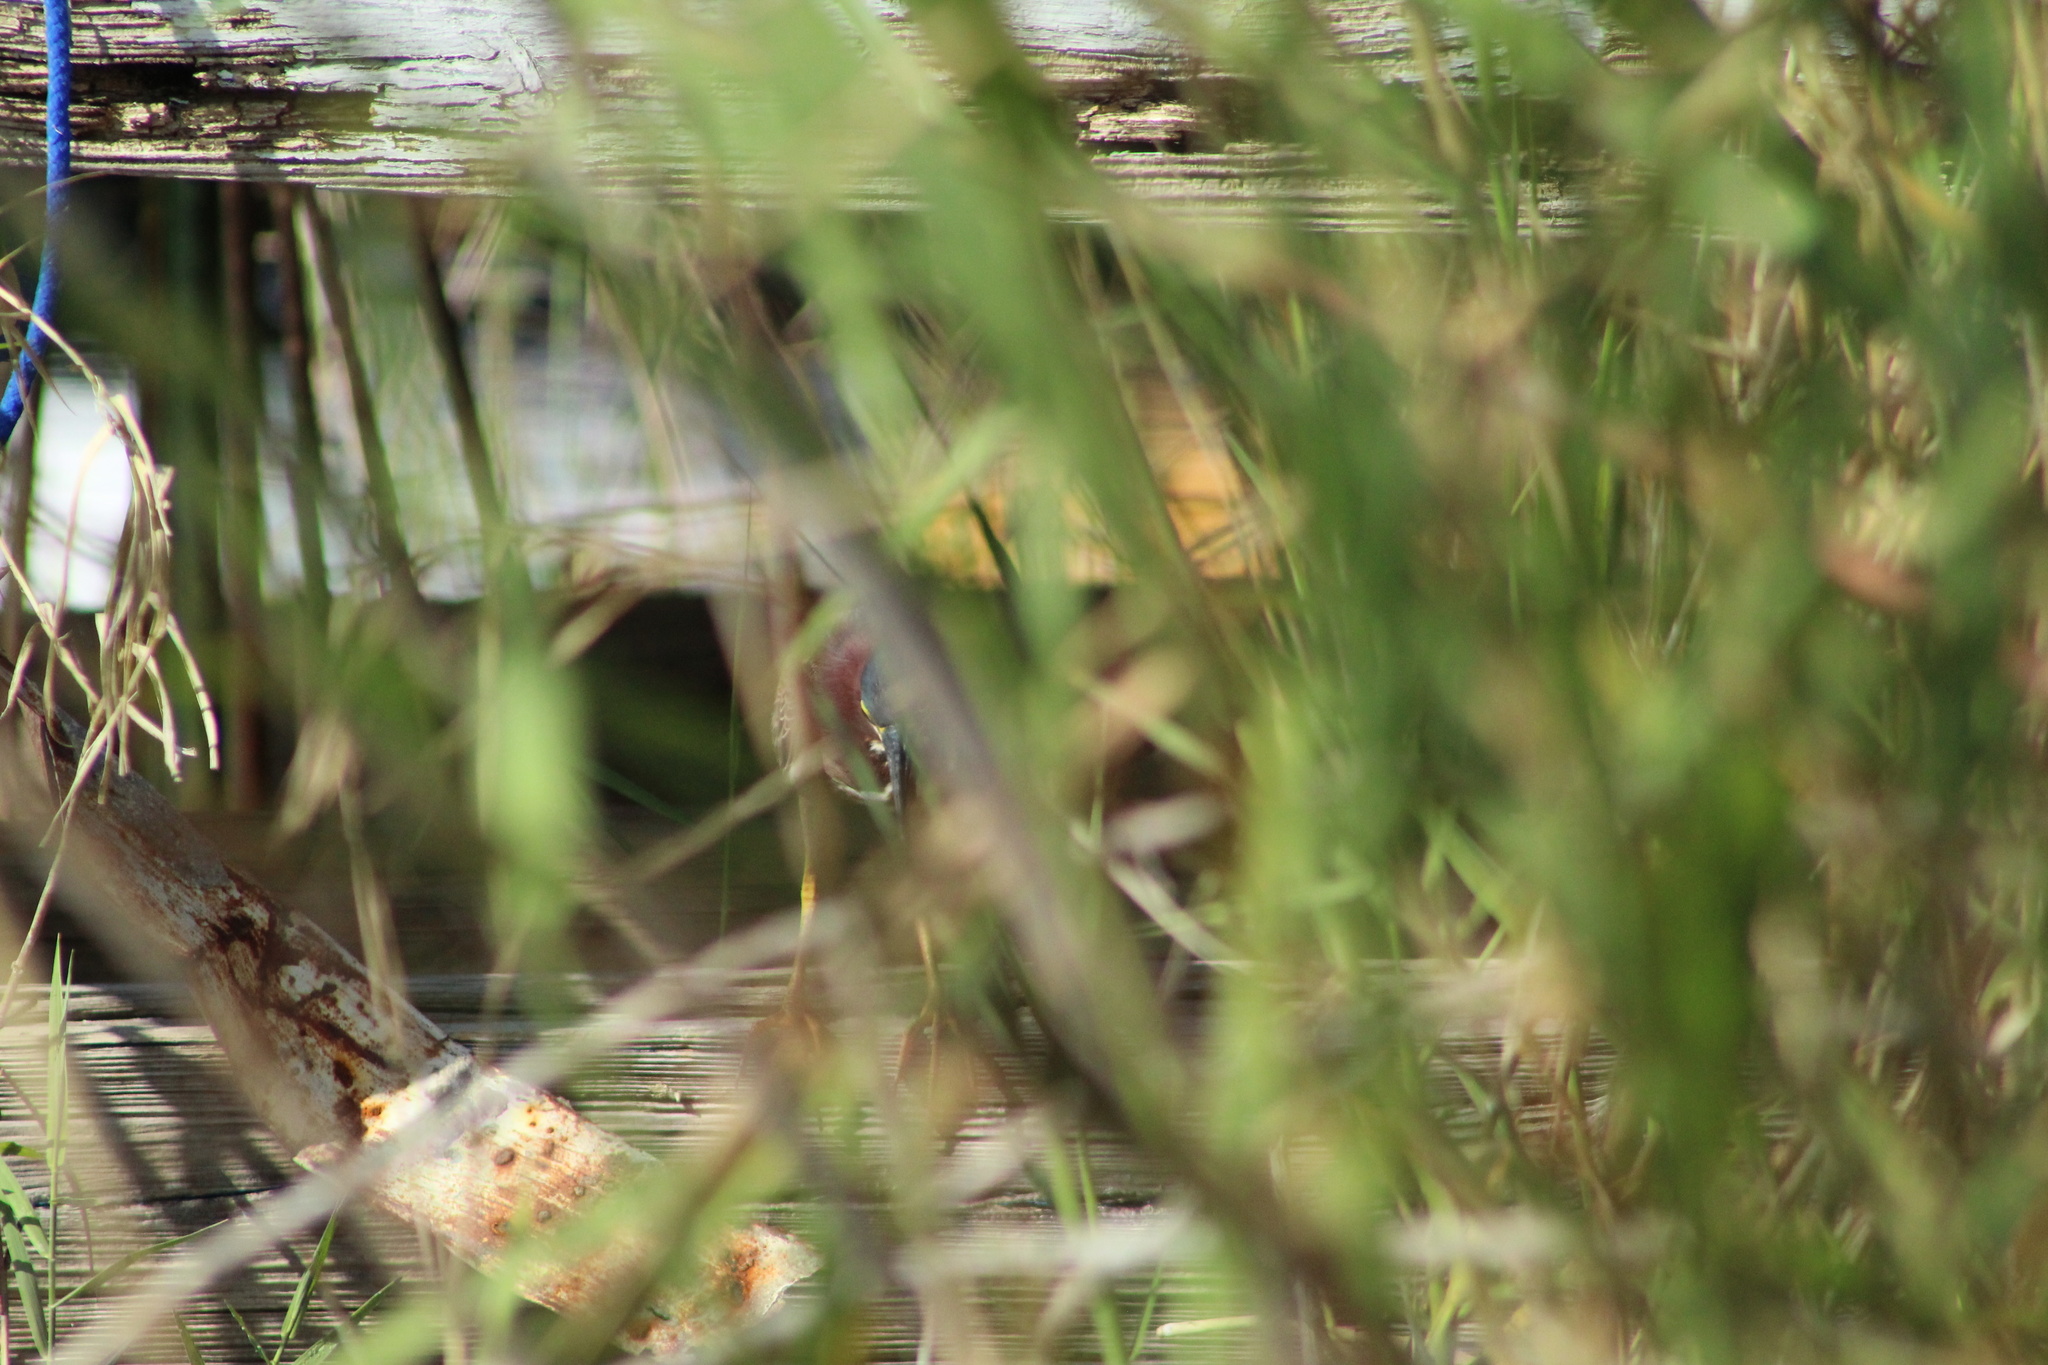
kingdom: Animalia
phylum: Chordata
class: Aves
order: Pelecaniformes
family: Ardeidae
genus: Butorides
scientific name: Butorides virescens
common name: Green heron
